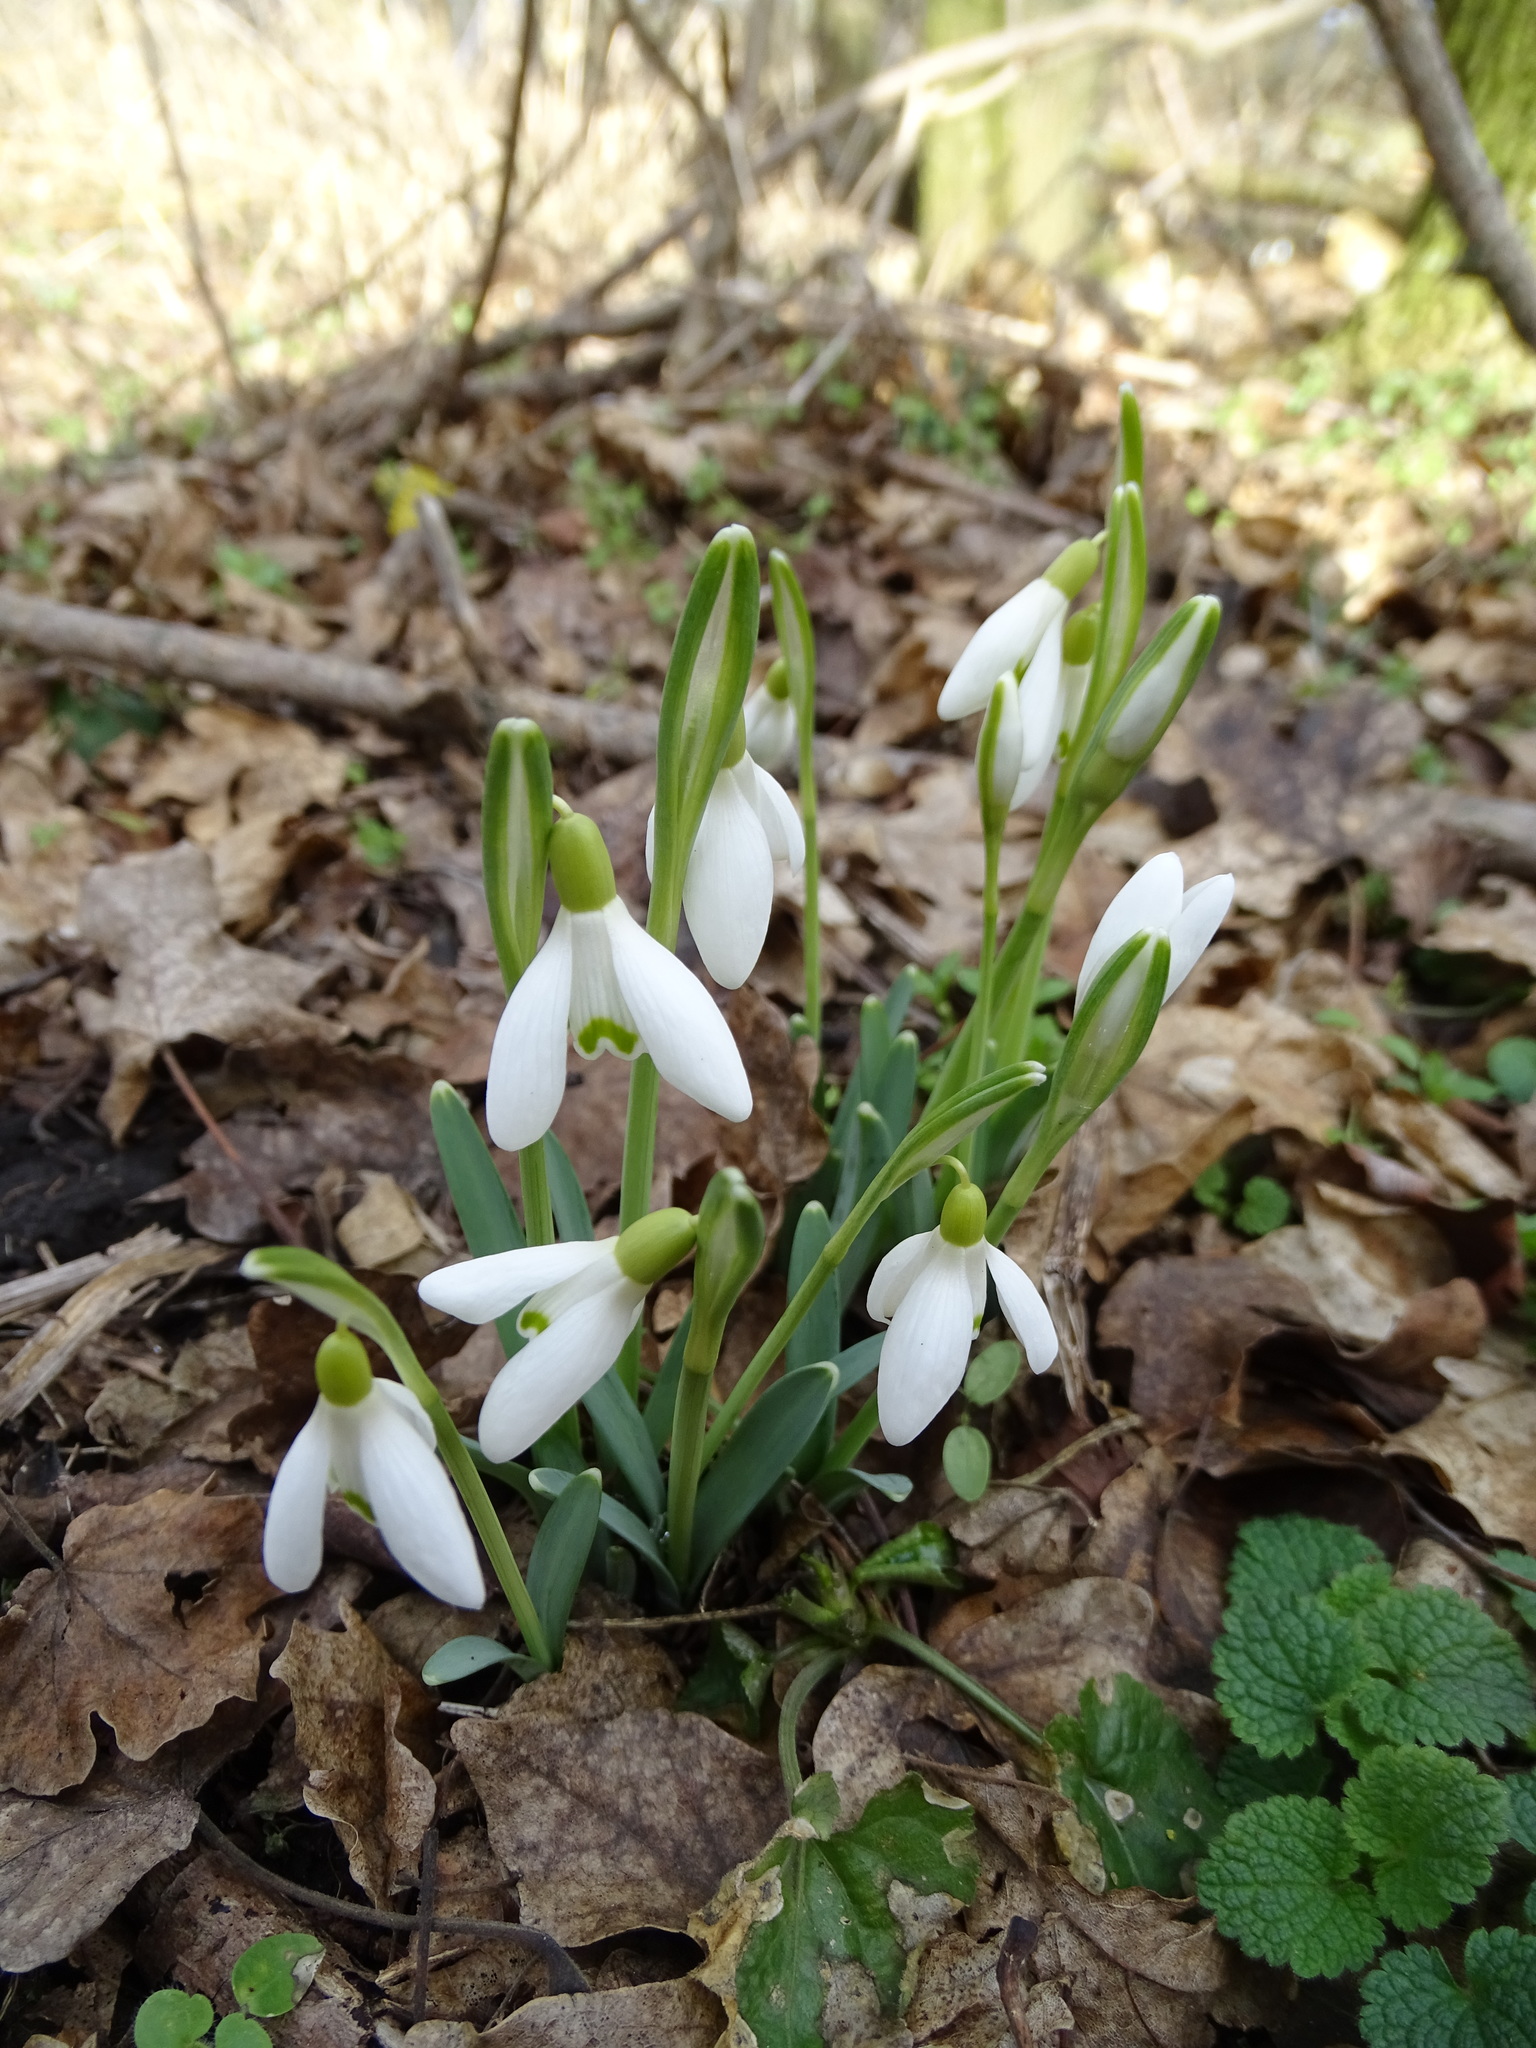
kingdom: Plantae
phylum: Tracheophyta
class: Liliopsida
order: Asparagales
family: Amaryllidaceae
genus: Galanthus
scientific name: Galanthus nivalis
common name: Snowdrop
